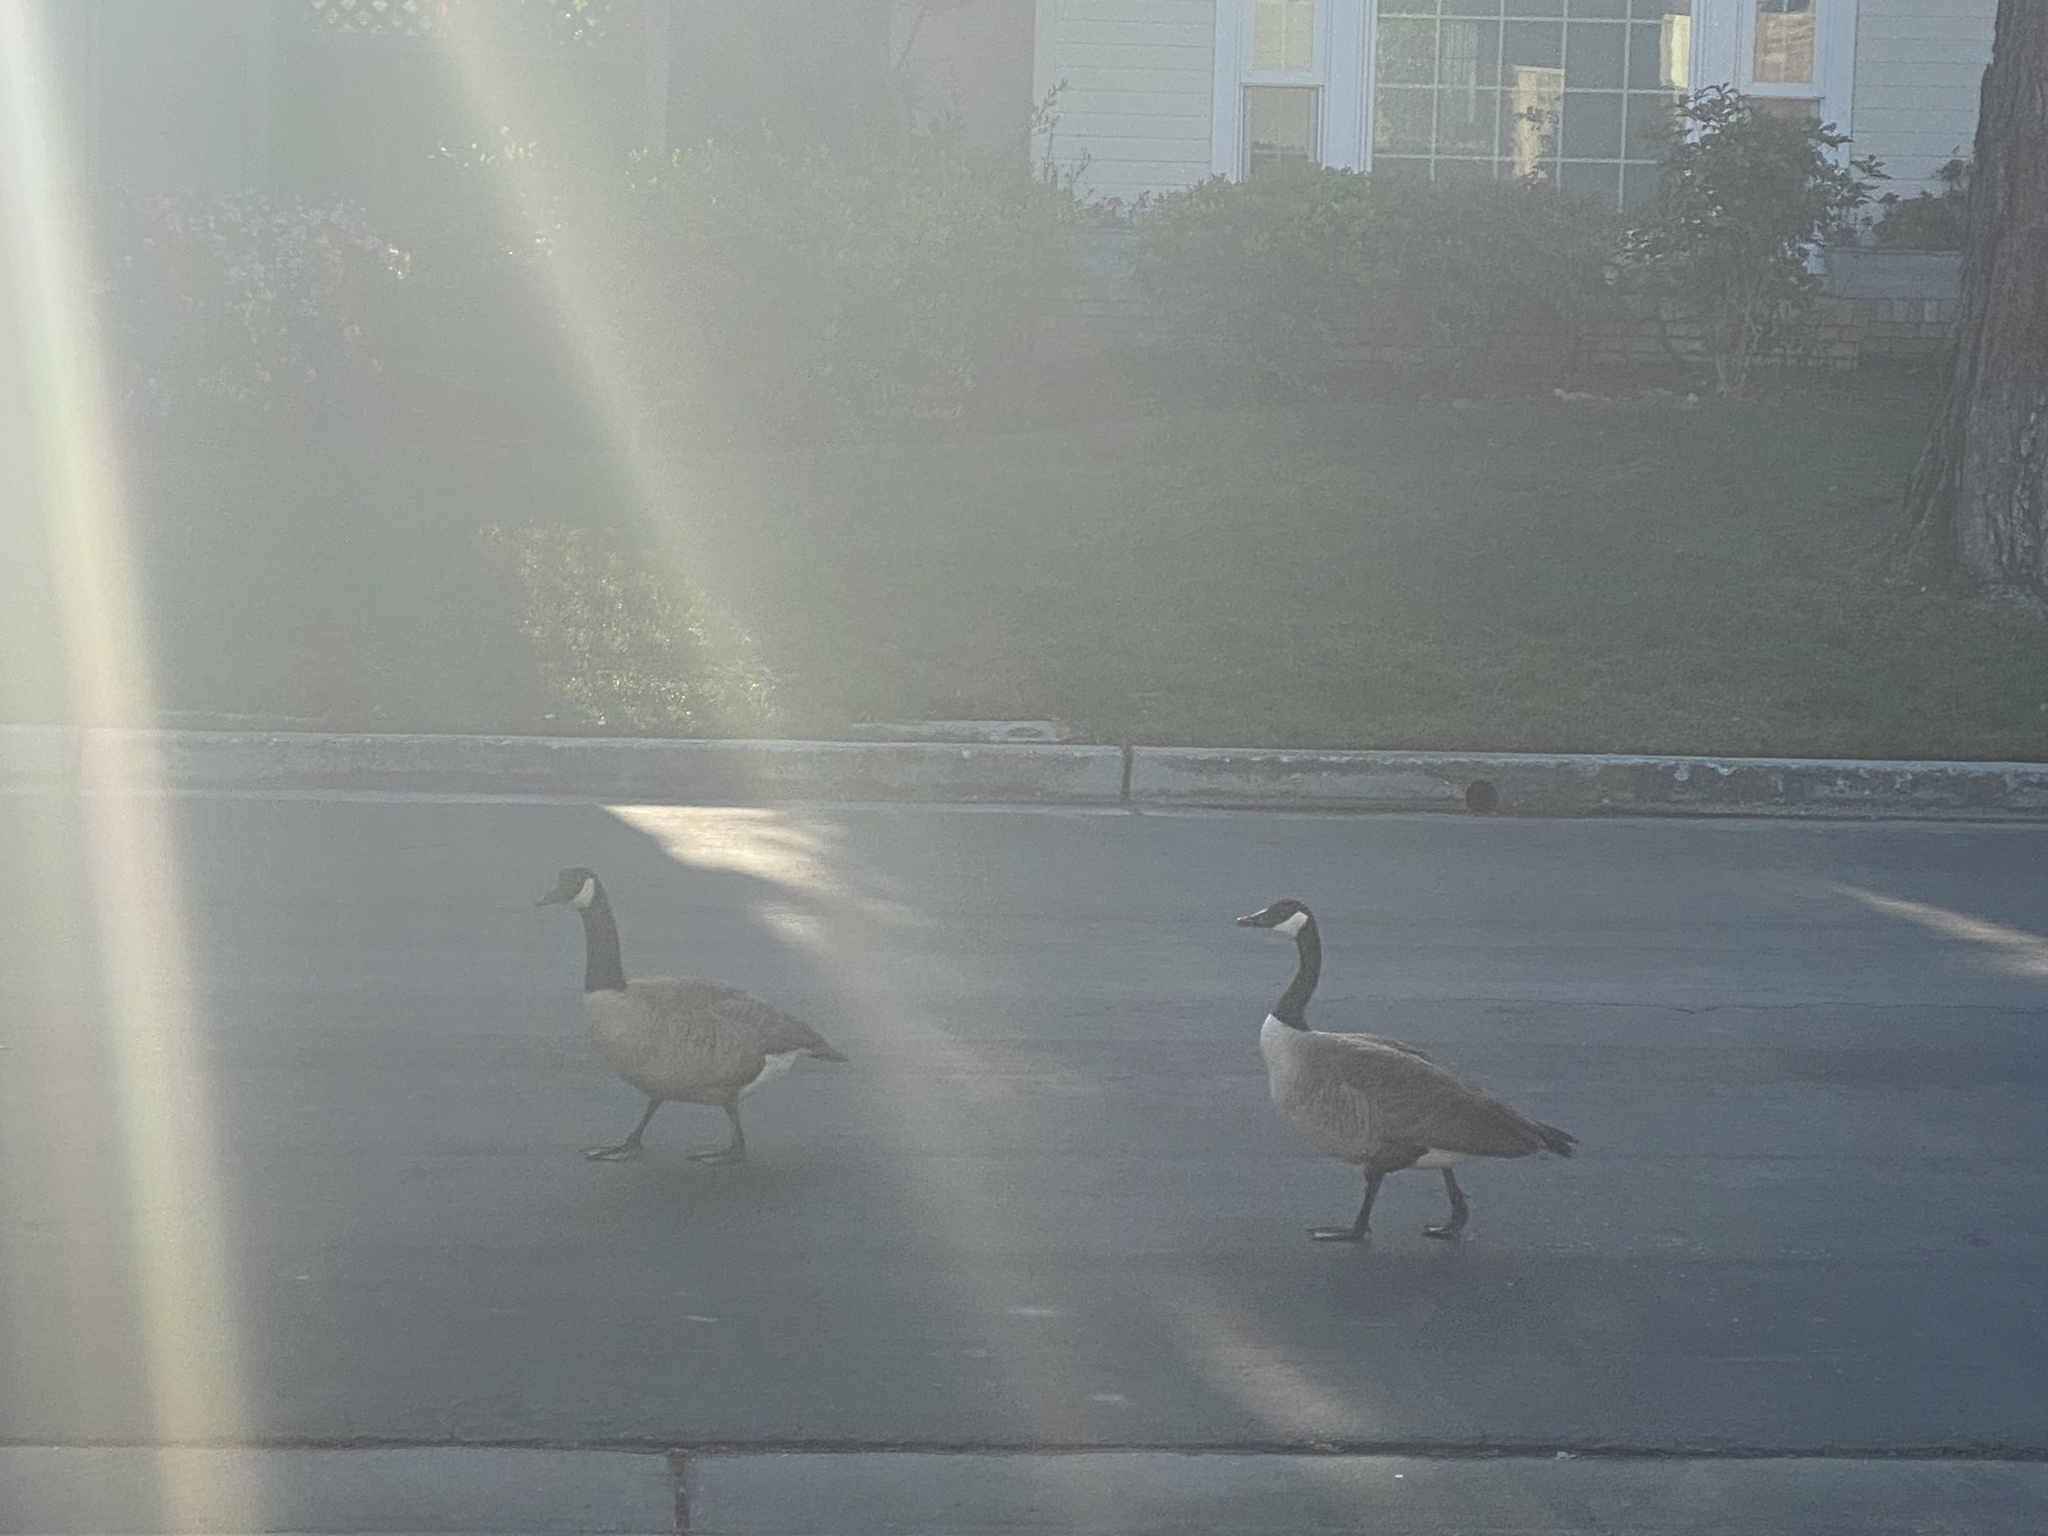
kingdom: Animalia
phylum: Chordata
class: Aves
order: Anseriformes
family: Anatidae
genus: Branta
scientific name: Branta canadensis
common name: Canada goose
